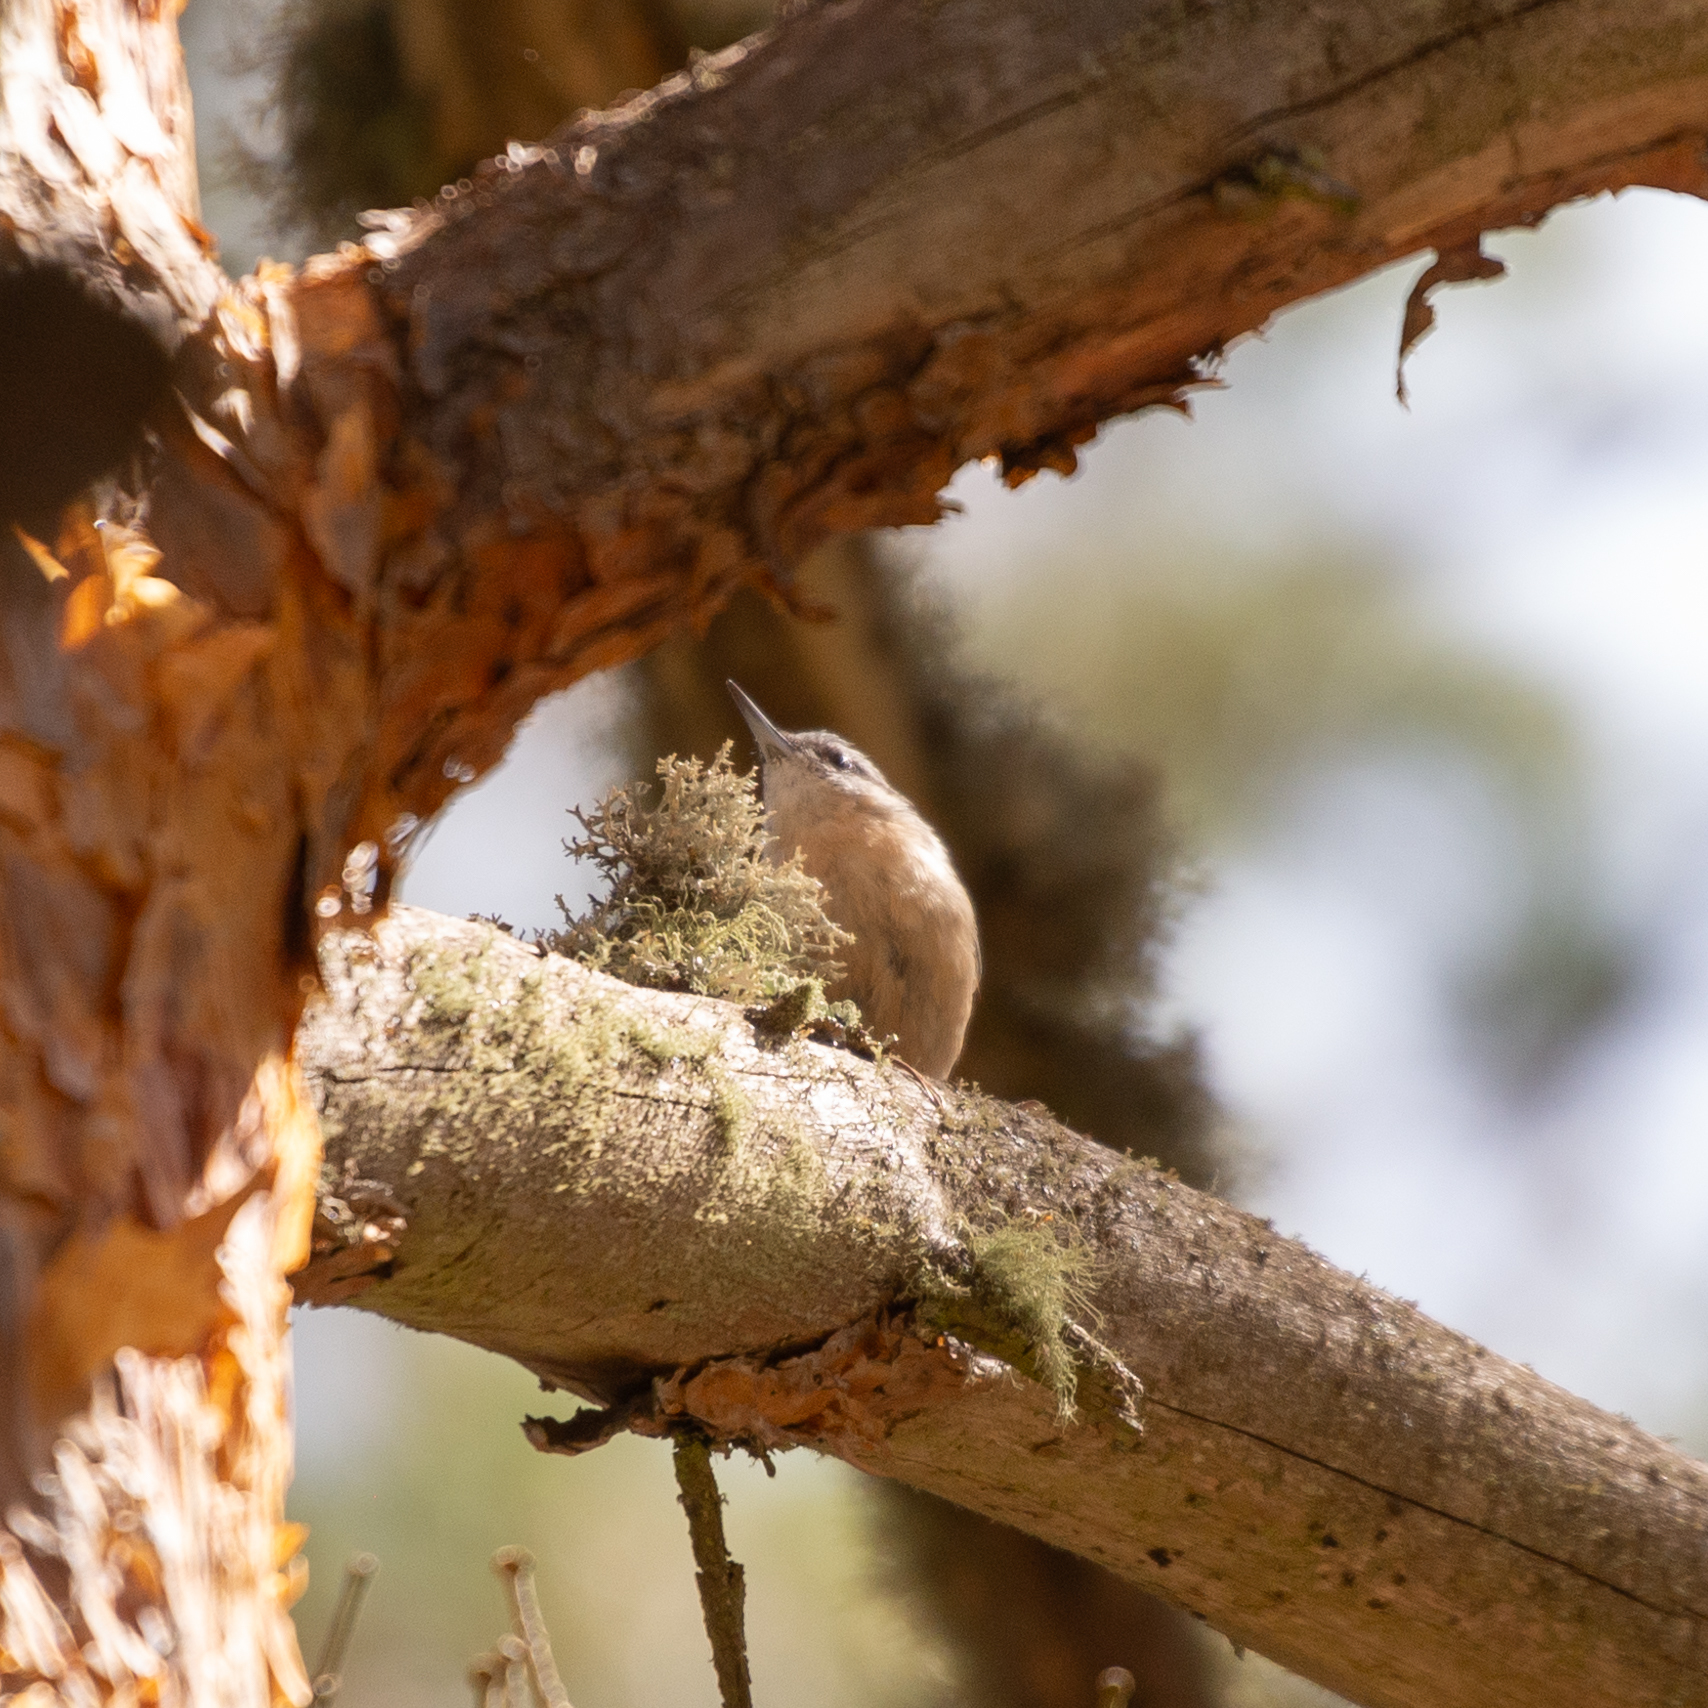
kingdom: Animalia
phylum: Chordata
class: Aves
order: Passeriformes
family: Sittidae
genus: Sitta
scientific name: Sitta europaea
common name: Eurasian nuthatch
